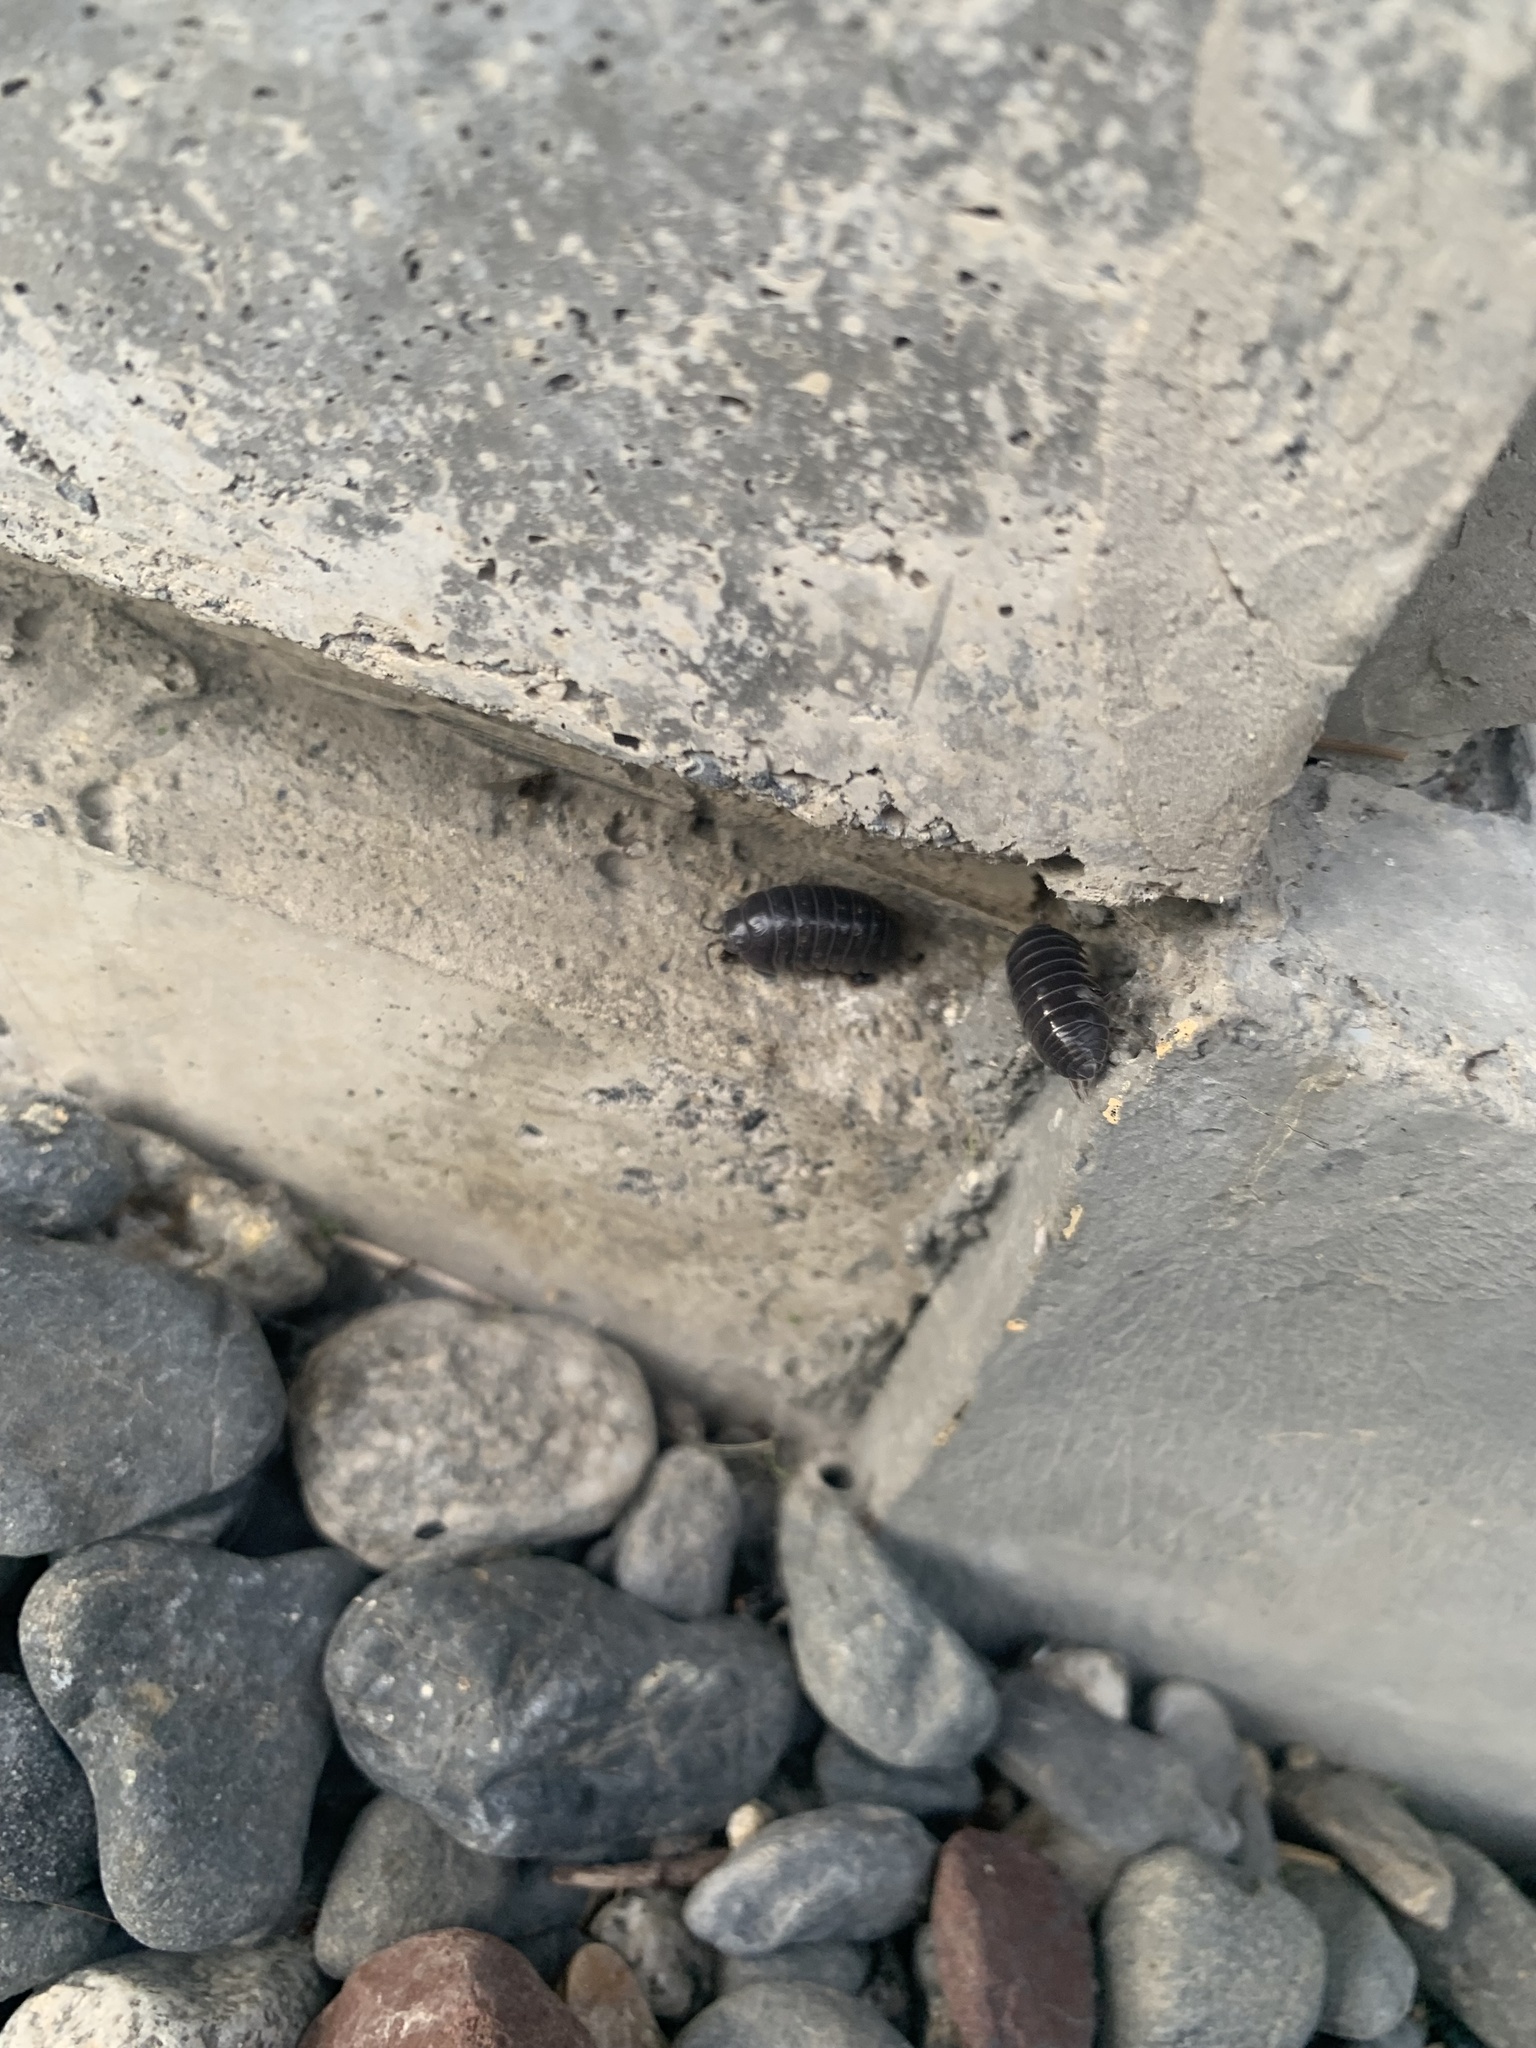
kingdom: Animalia
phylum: Arthropoda
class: Malacostraca
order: Isopoda
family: Armadillidiidae
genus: Armadillidium
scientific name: Armadillidium vulgare
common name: Common pill woodlouse
